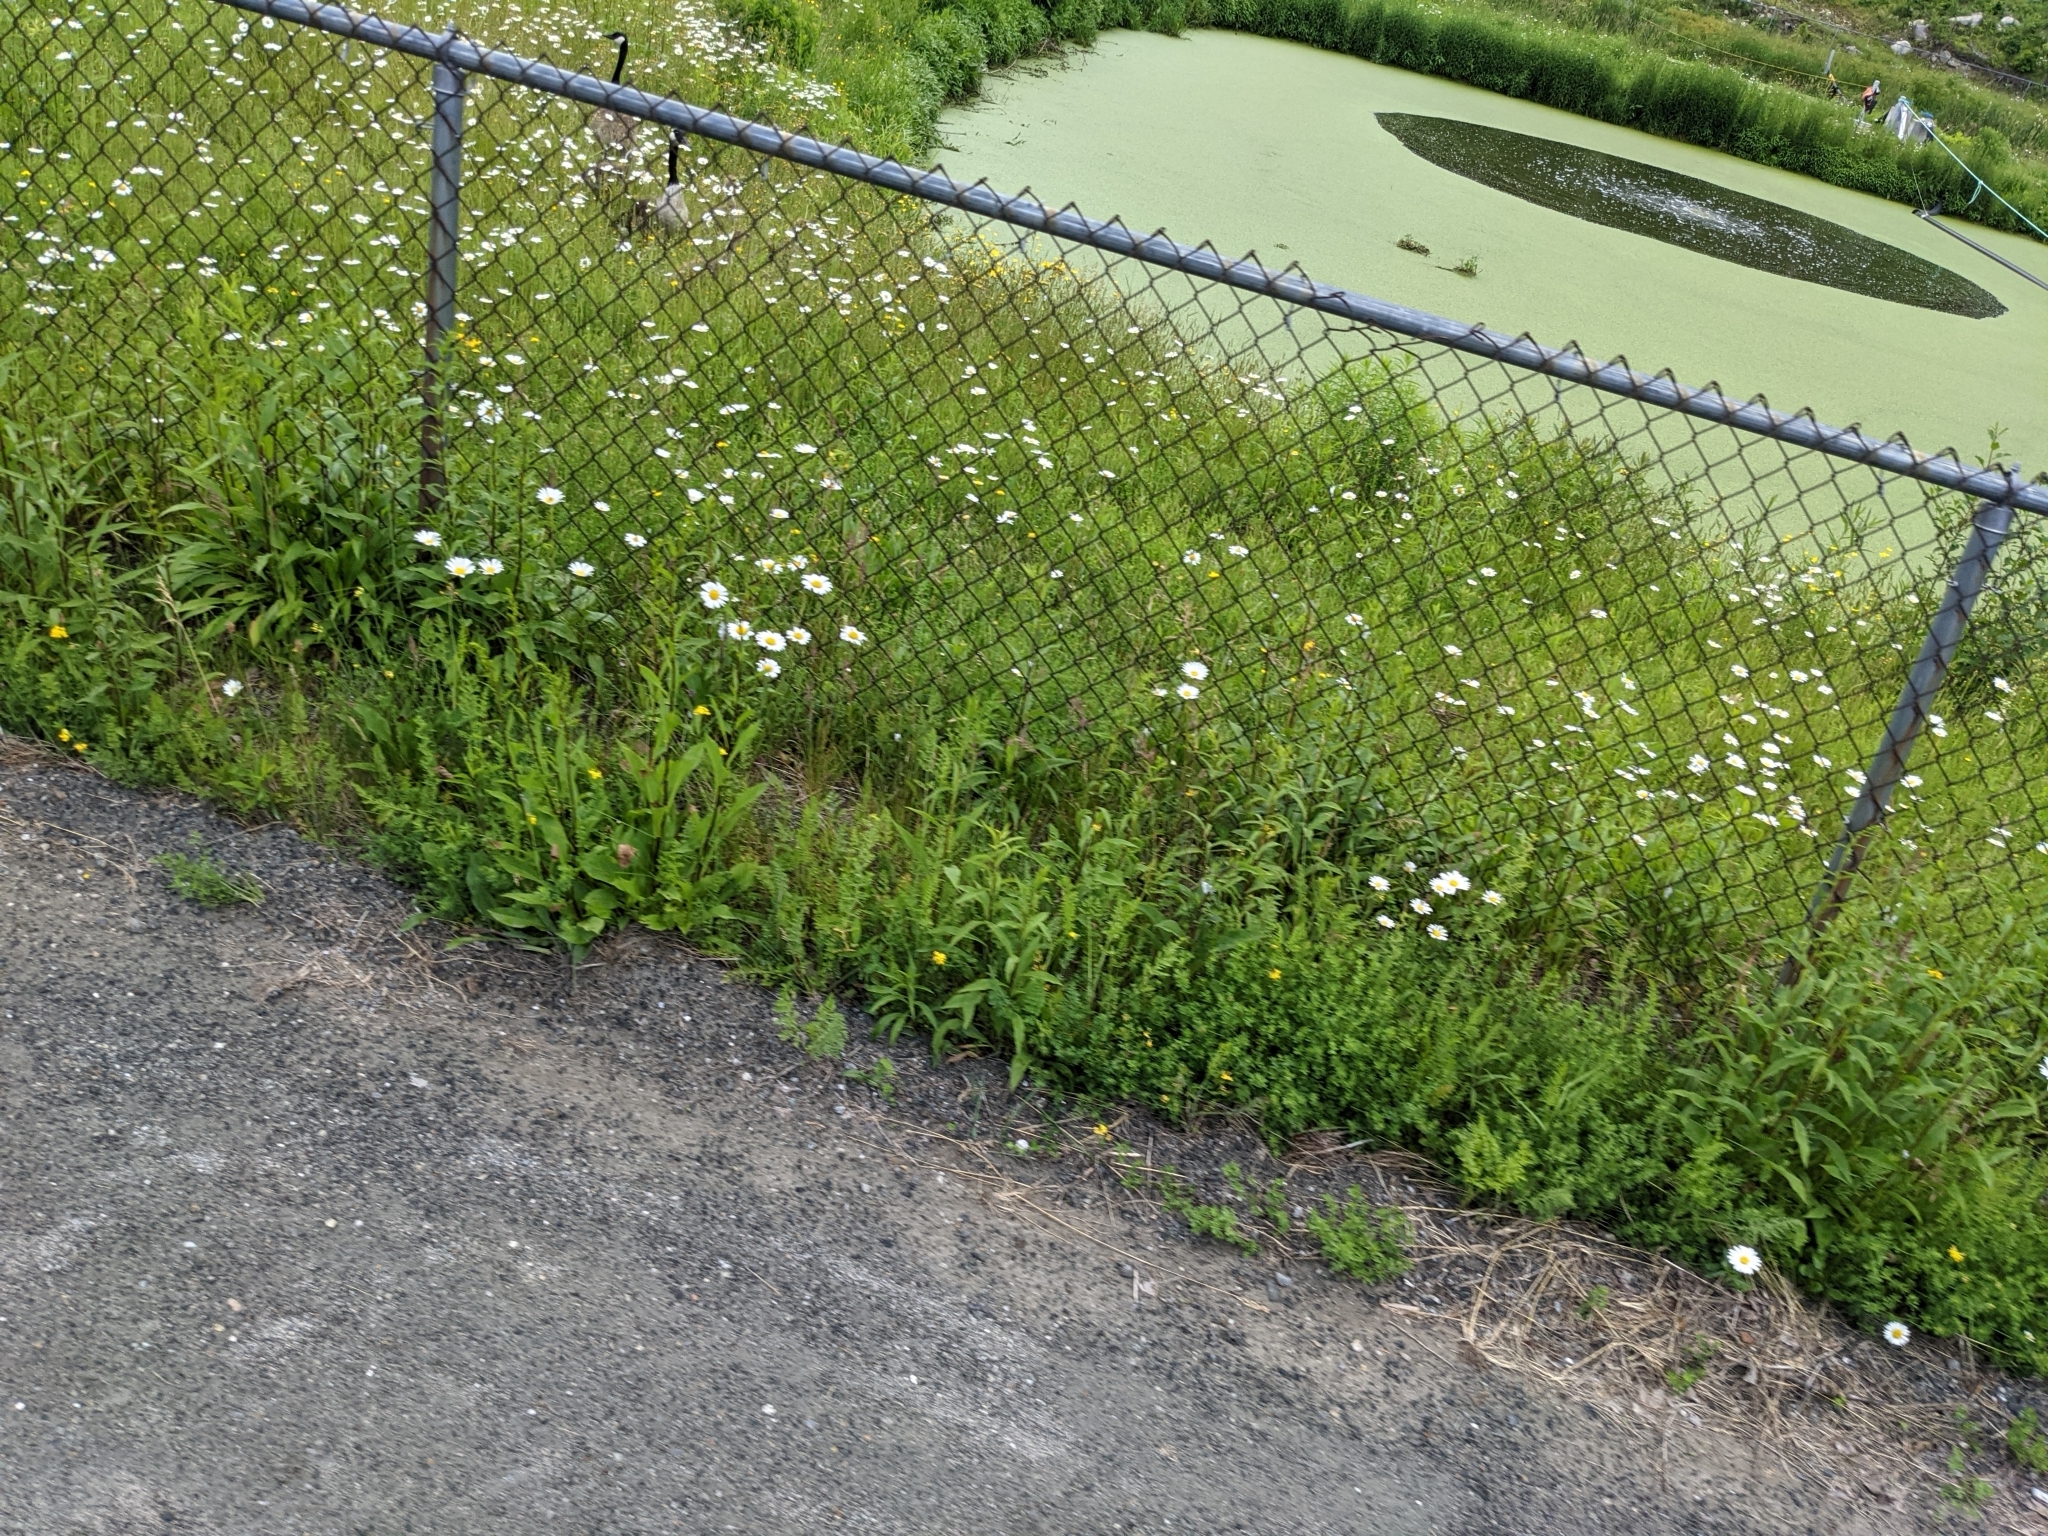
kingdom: Animalia
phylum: Chordata
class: Aves
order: Anseriformes
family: Anatidae
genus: Branta
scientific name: Branta canadensis
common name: Canada goose
